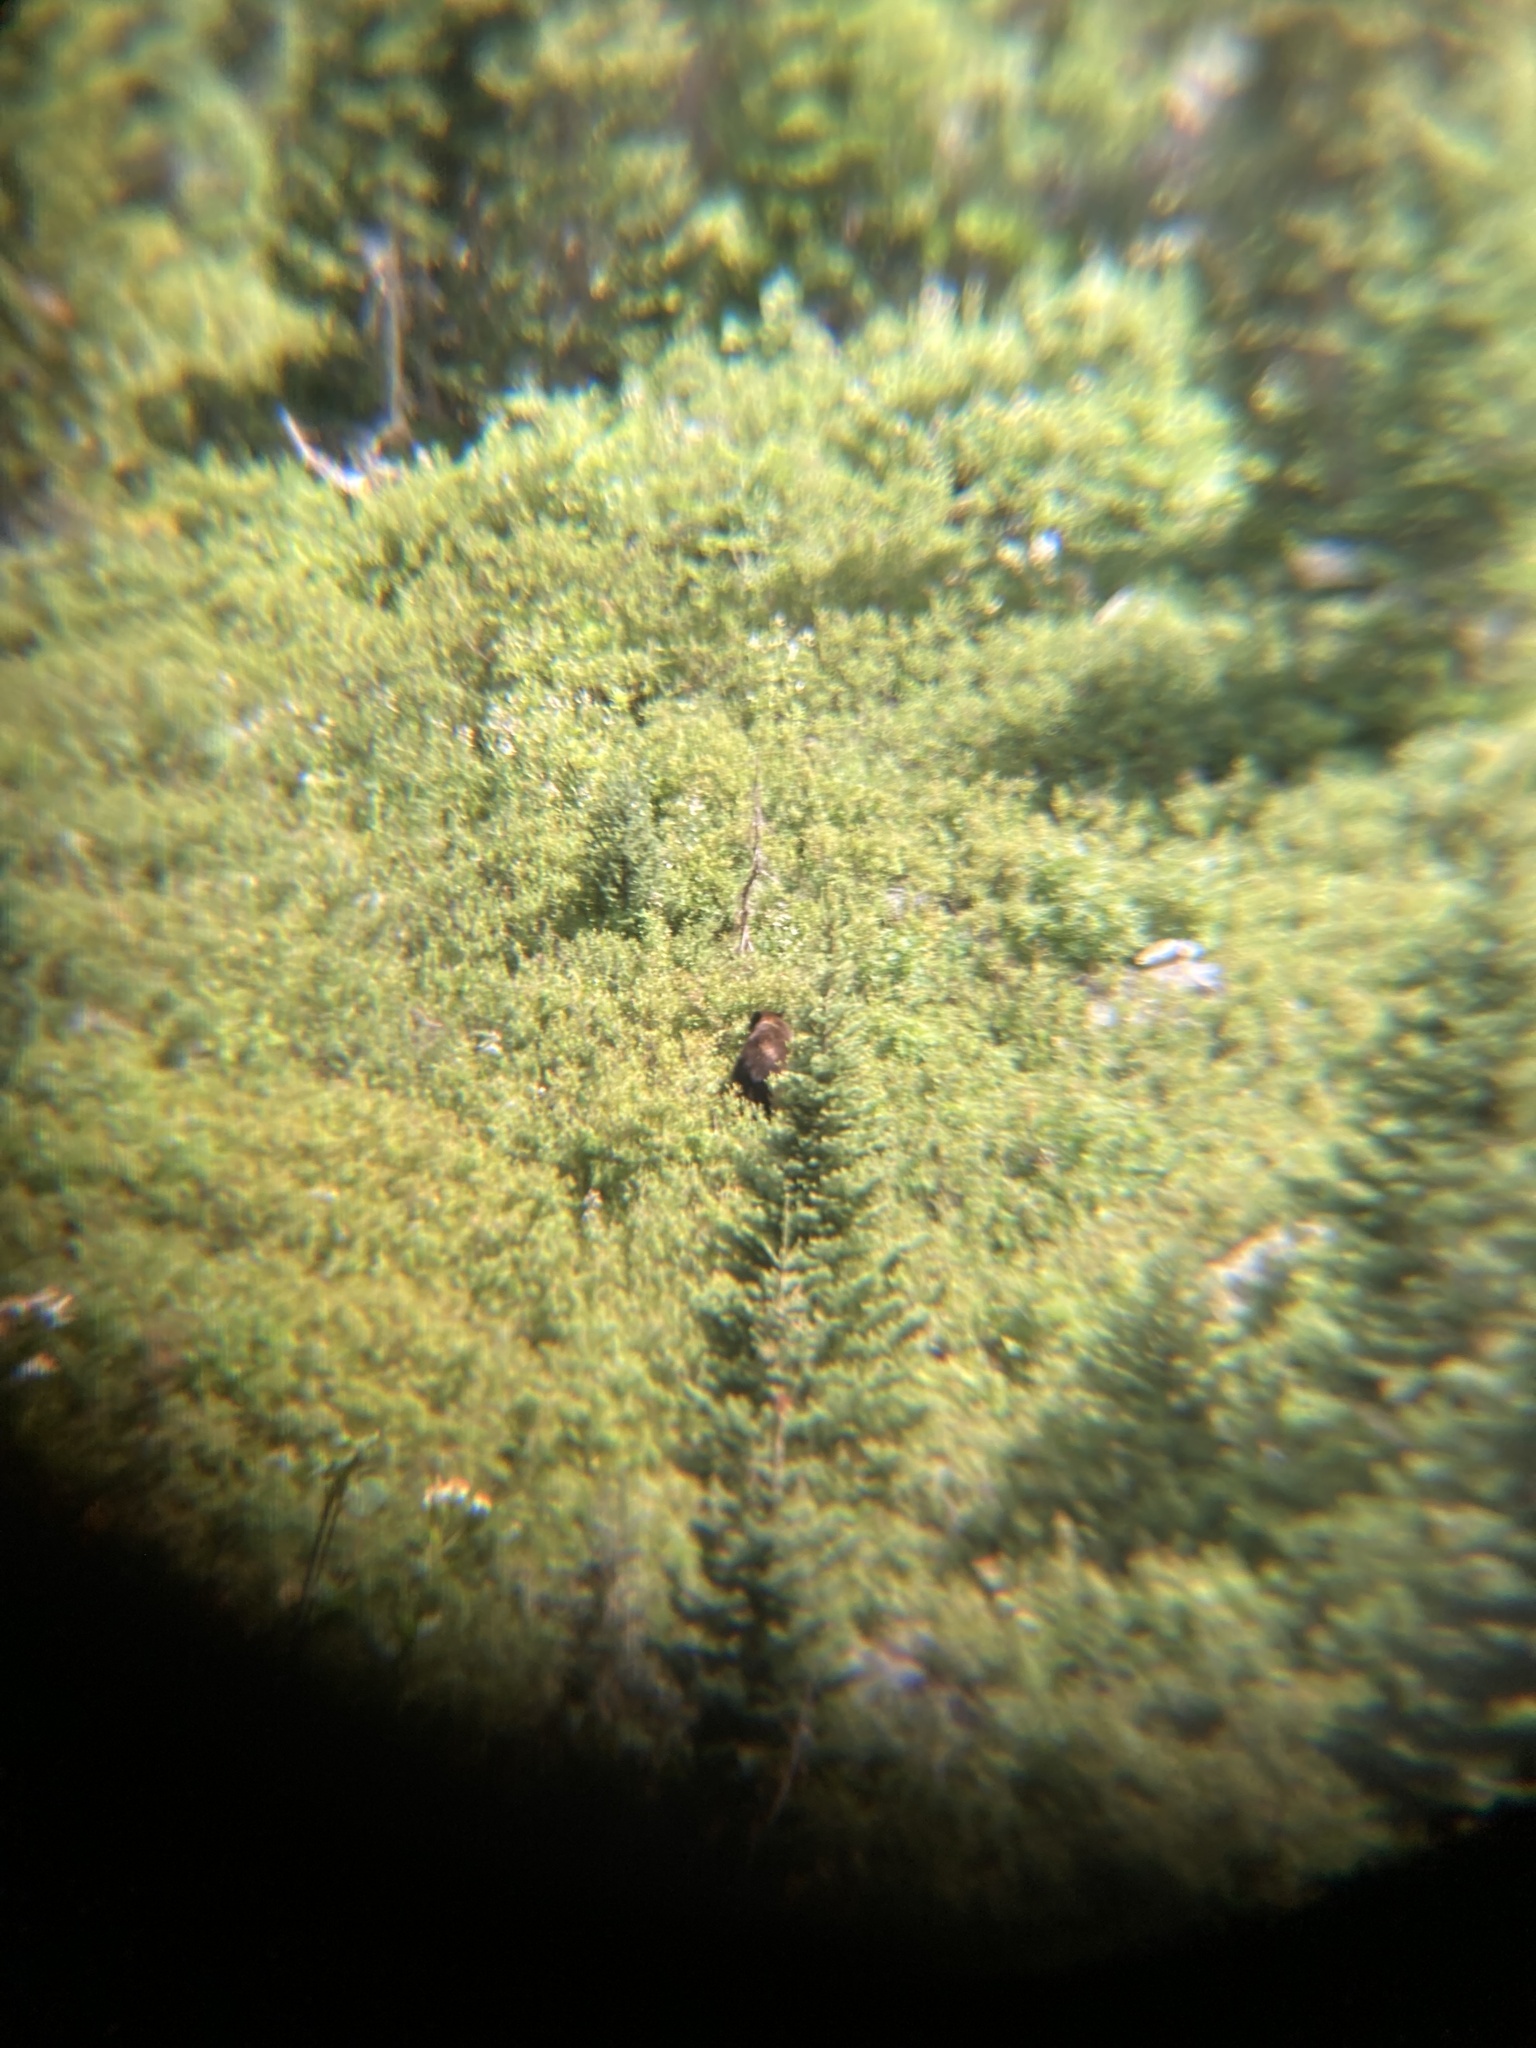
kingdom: Animalia
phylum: Chordata
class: Mammalia
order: Carnivora
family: Ursidae
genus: Ursus
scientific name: Ursus americanus
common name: American black bear
